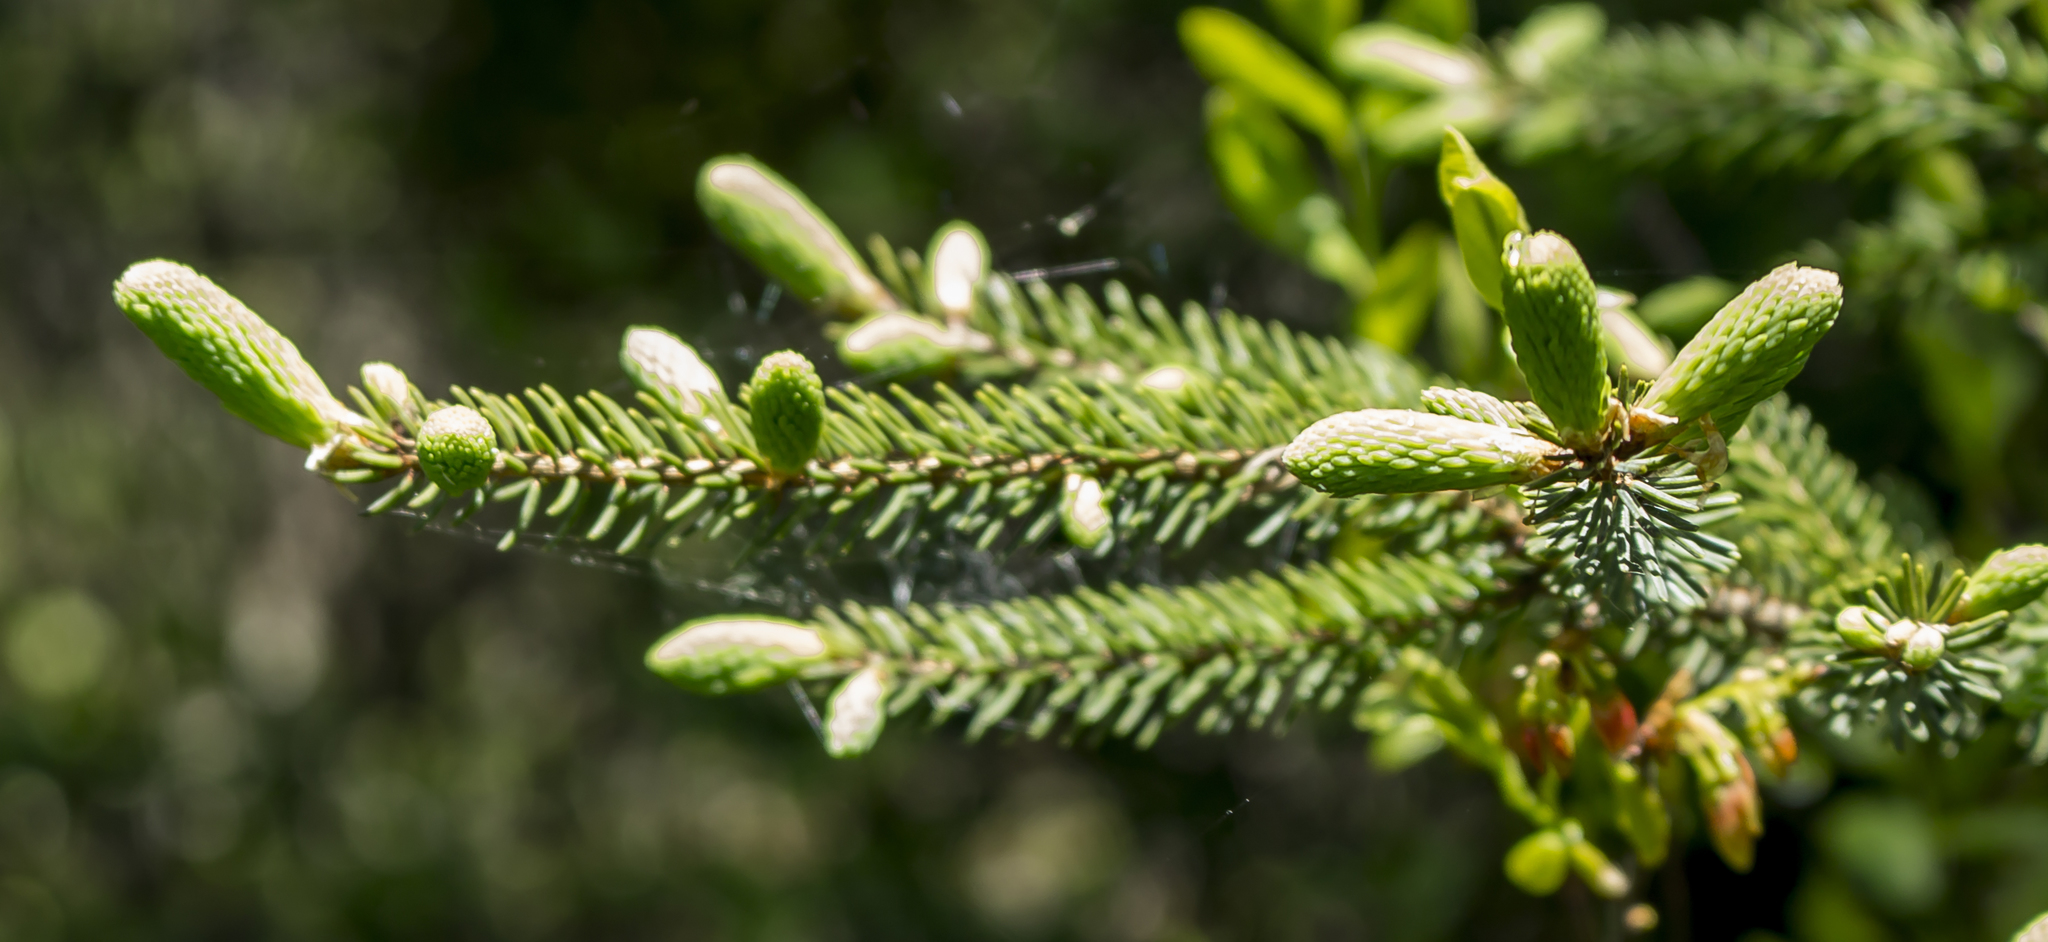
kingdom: Plantae
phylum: Tracheophyta
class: Pinopsida
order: Pinales
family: Pinaceae
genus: Picea
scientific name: Picea mariana
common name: Black spruce
